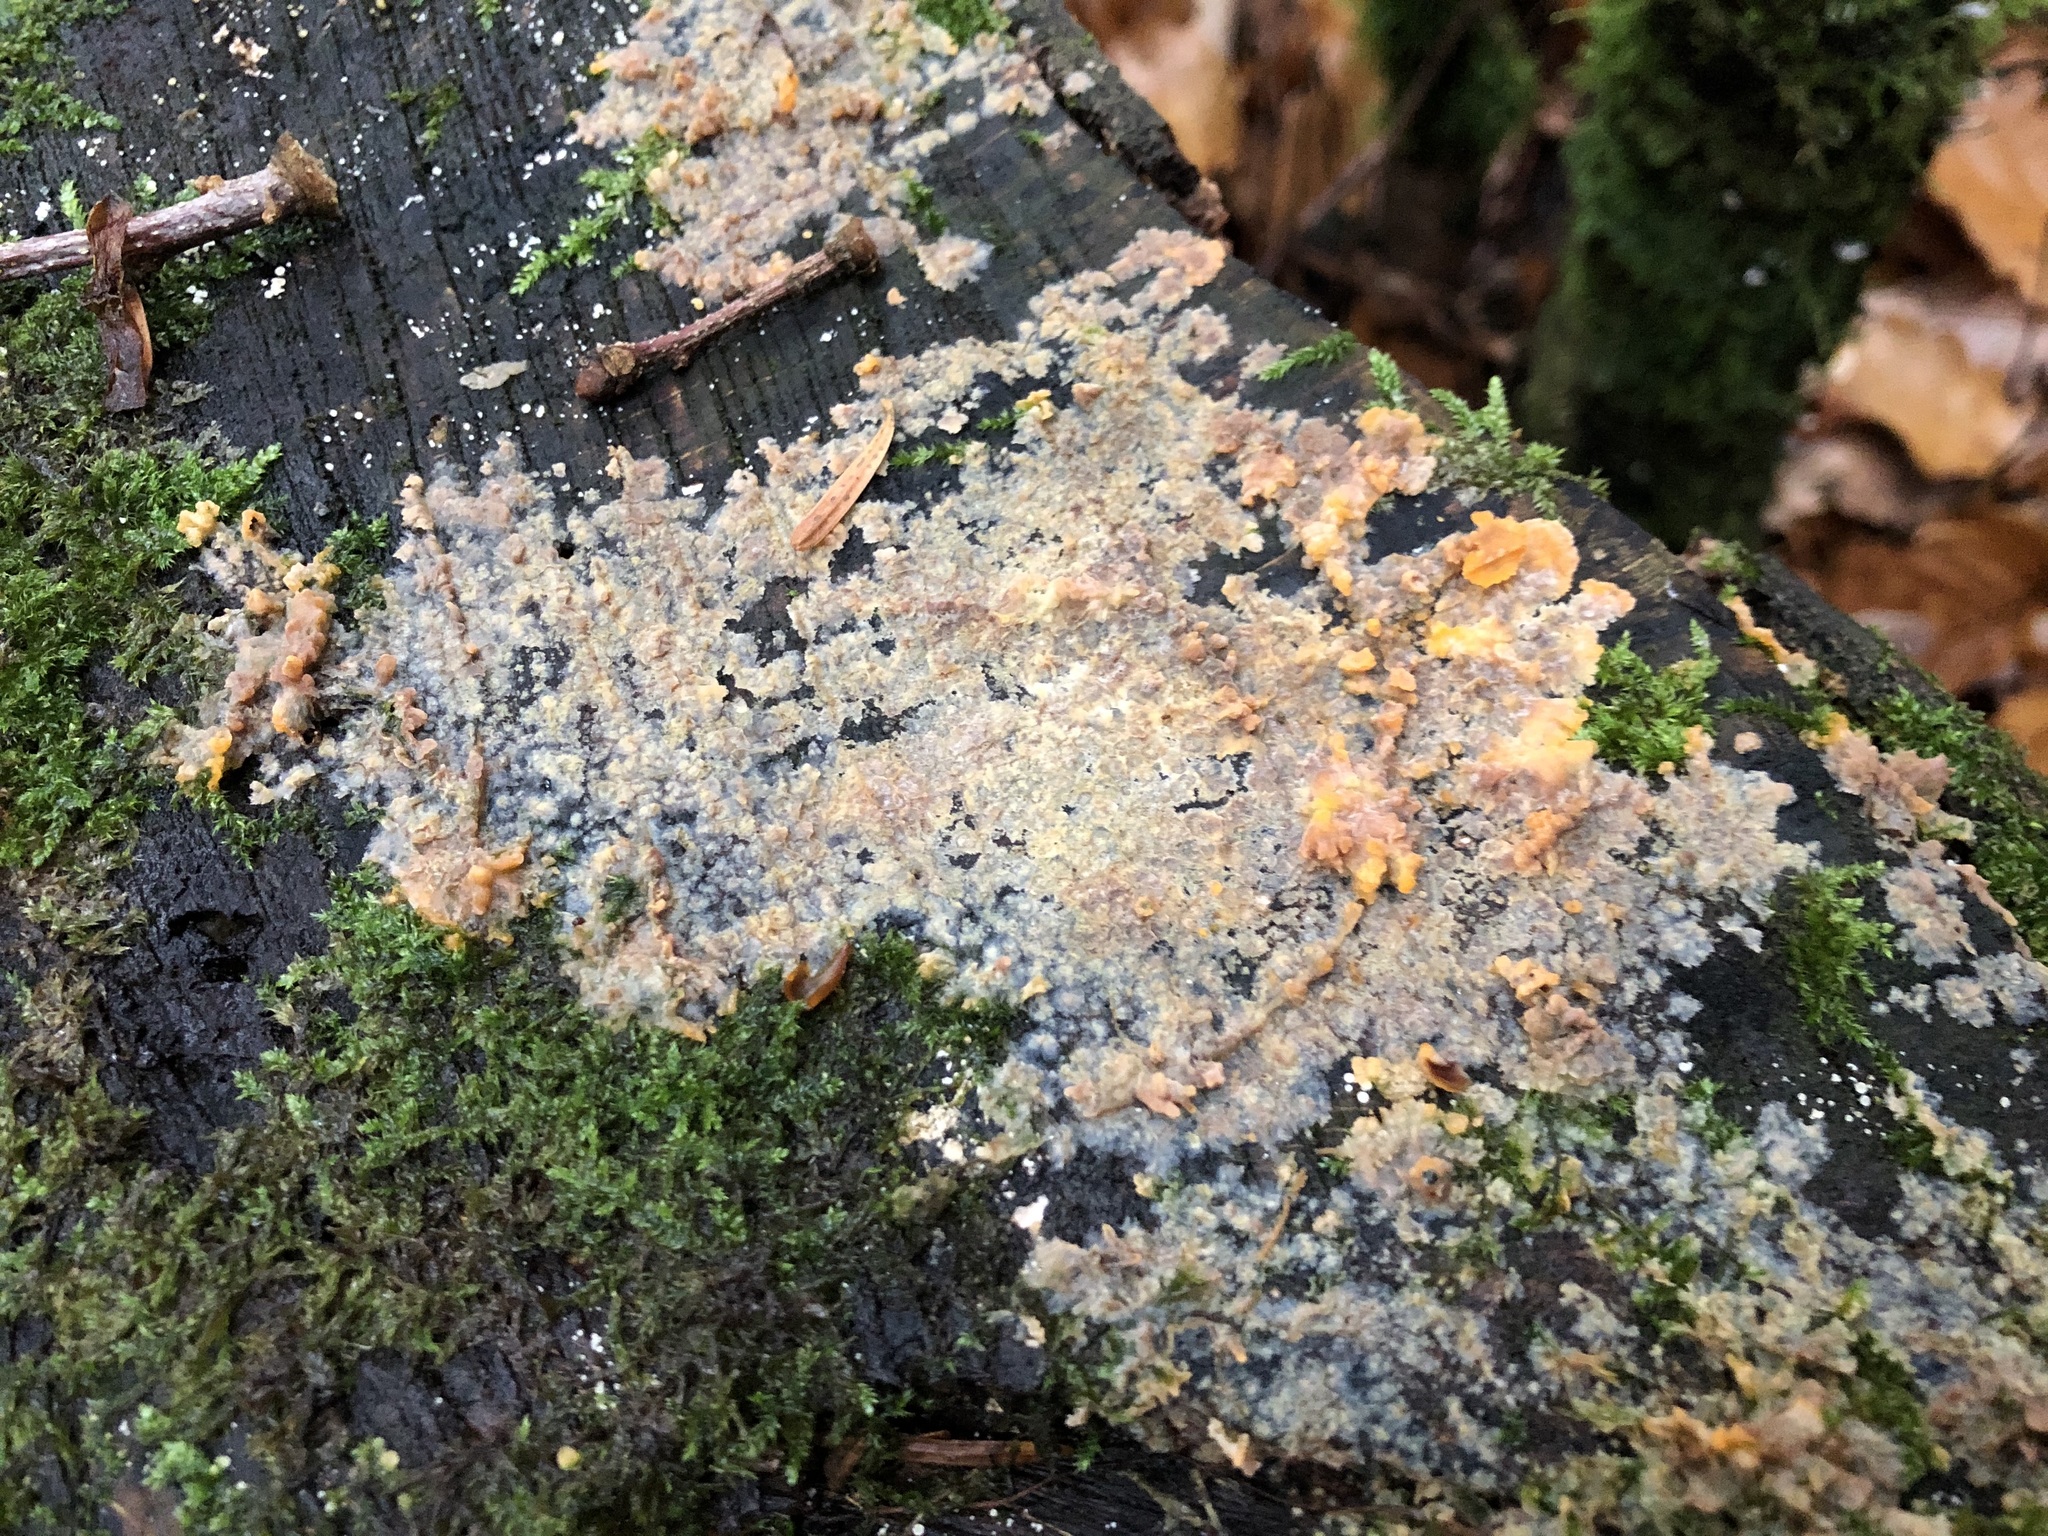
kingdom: Fungi
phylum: Basidiomycota
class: Agaricomycetes
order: Polyporales
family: Meruliaceae
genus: Phlebia
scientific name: Phlebia radiata
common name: Wrinkled crust
